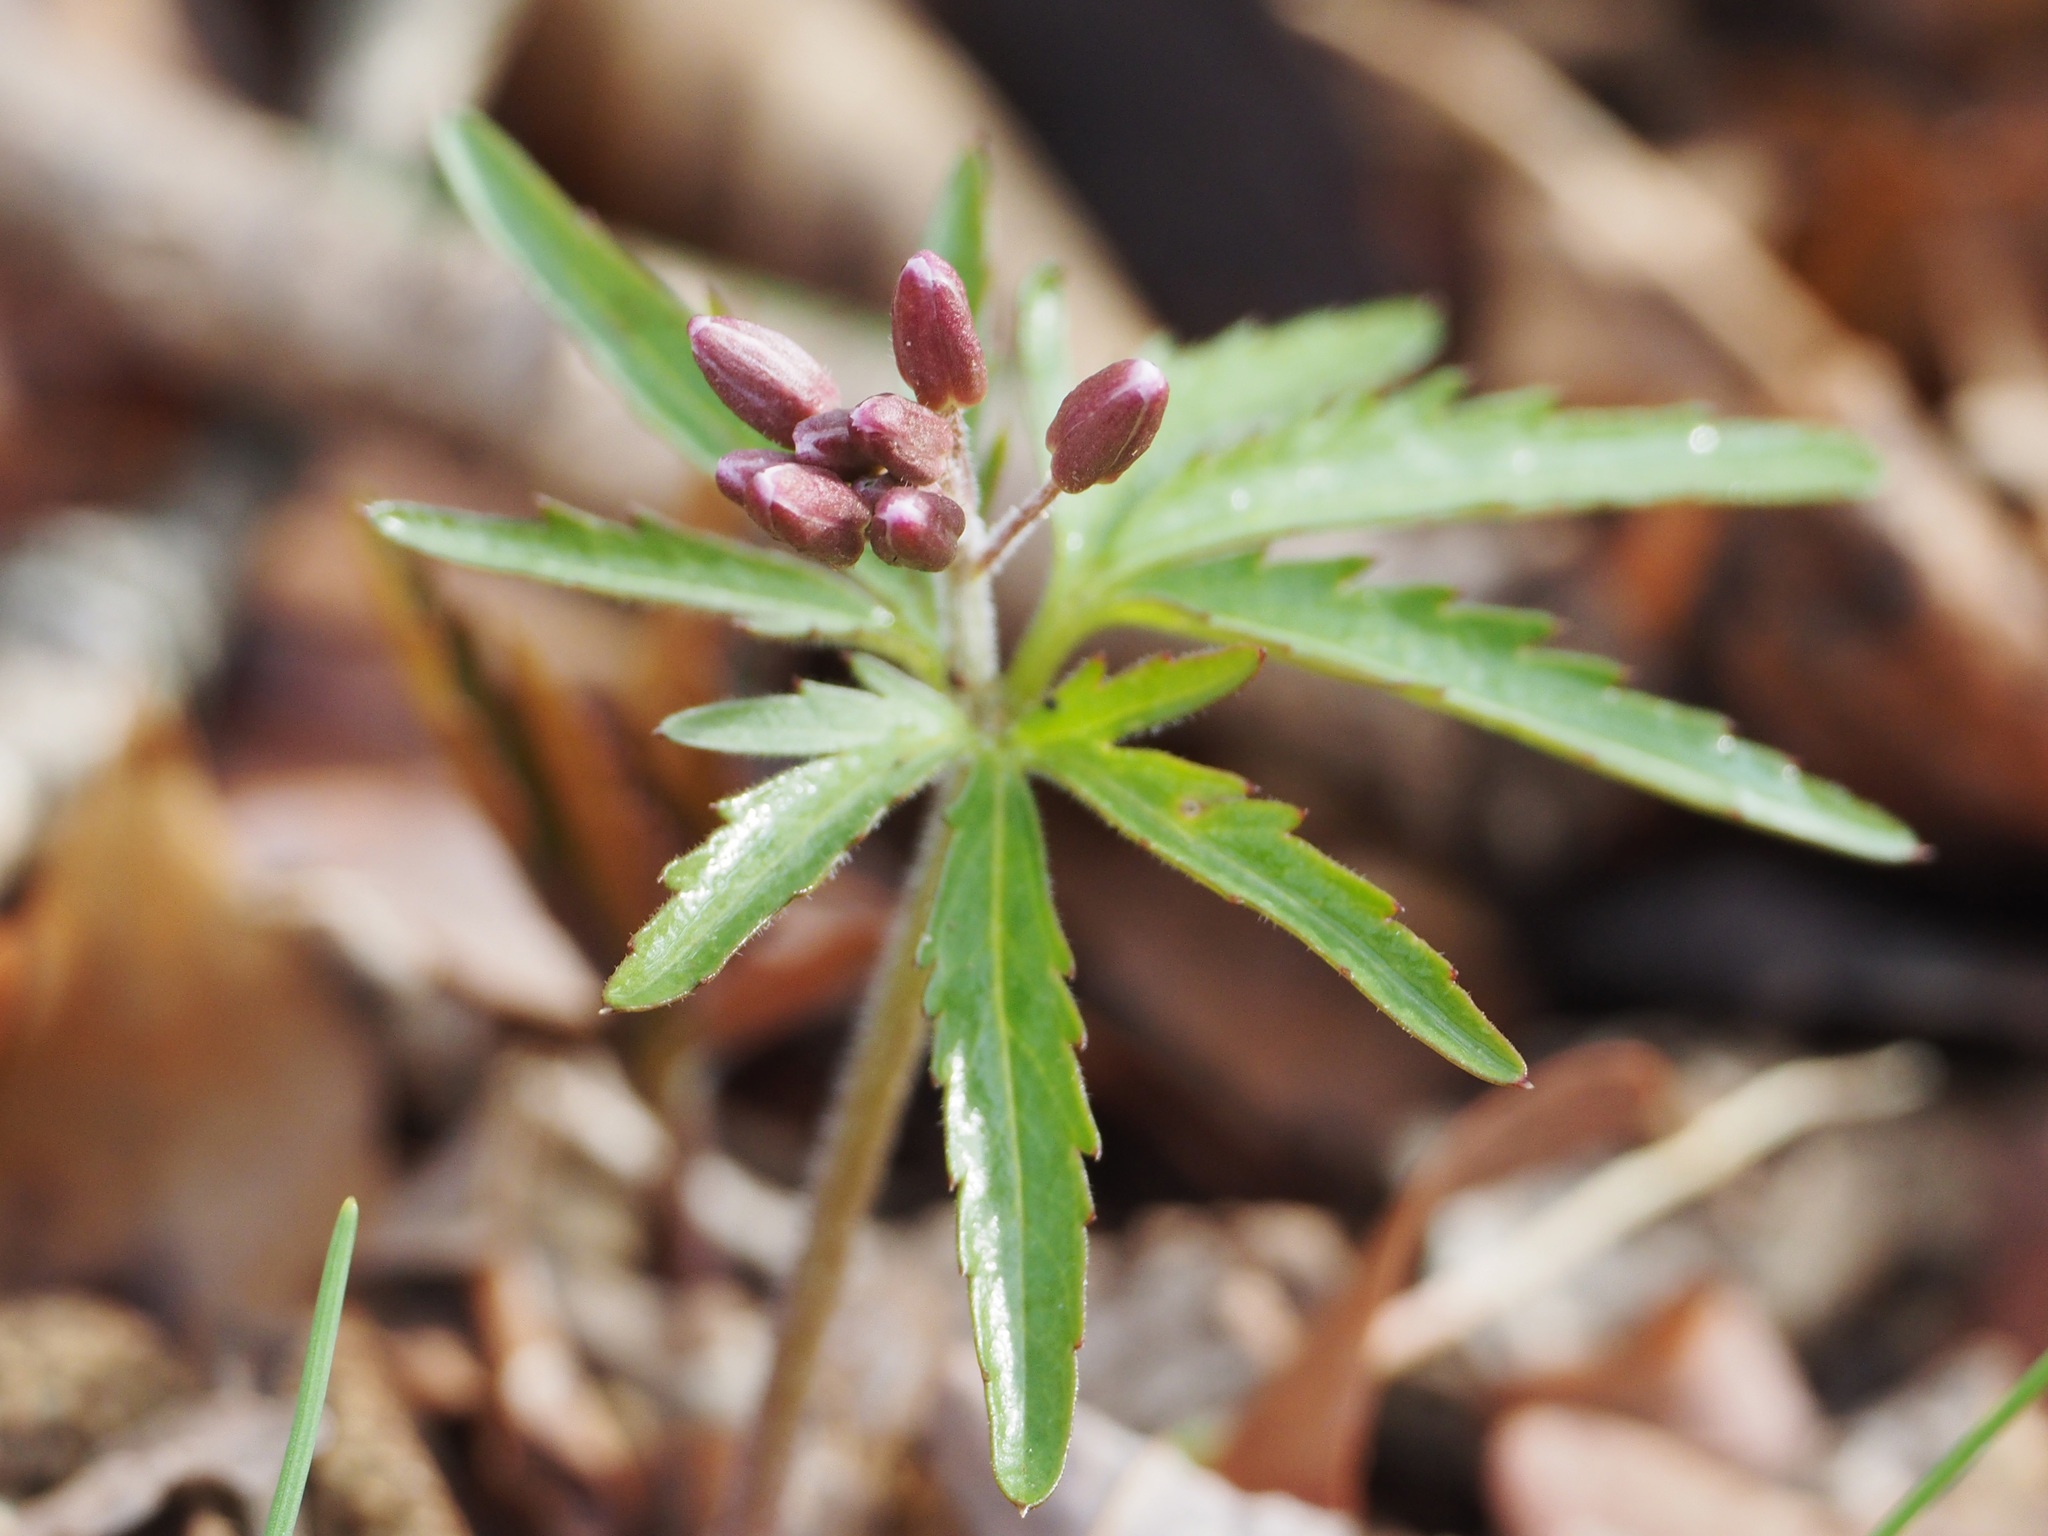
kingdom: Plantae
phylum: Tracheophyta
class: Magnoliopsida
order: Brassicales
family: Brassicaceae
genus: Cardamine
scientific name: Cardamine concatenata
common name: Cut-leaf toothcup
